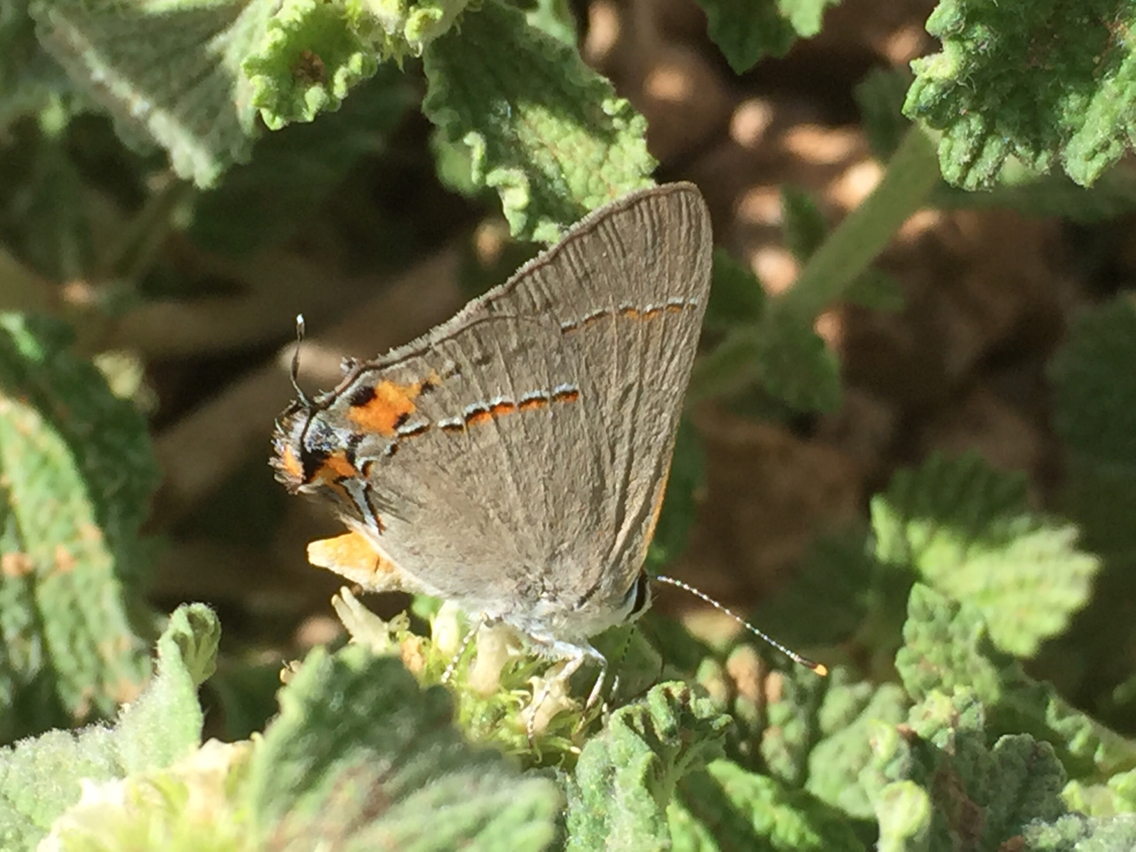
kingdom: Animalia
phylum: Arthropoda
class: Insecta
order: Lepidoptera
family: Lycaenidae
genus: Strymon
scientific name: Strymon melinus
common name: Gray hairstreak
